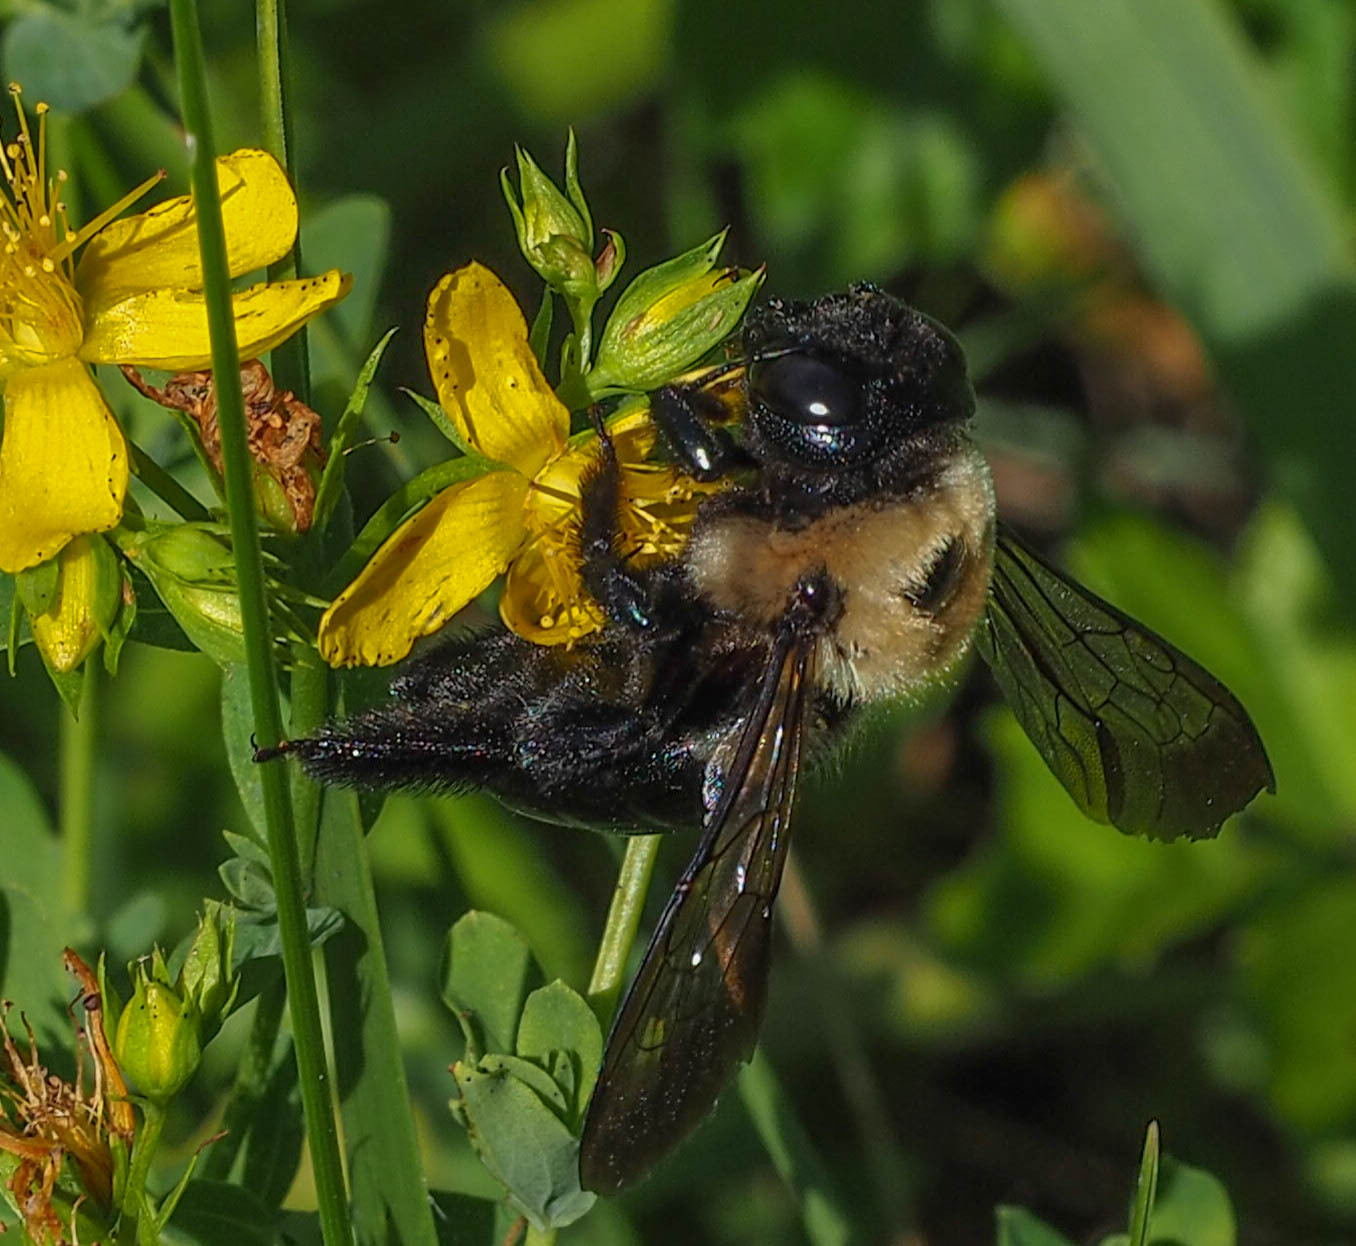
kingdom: Animalia
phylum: Arthropoda
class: Insecta
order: Hymenoptera
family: Apidae
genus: Xylocopa
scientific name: Xylocopa virginica
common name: Carpenter bee
